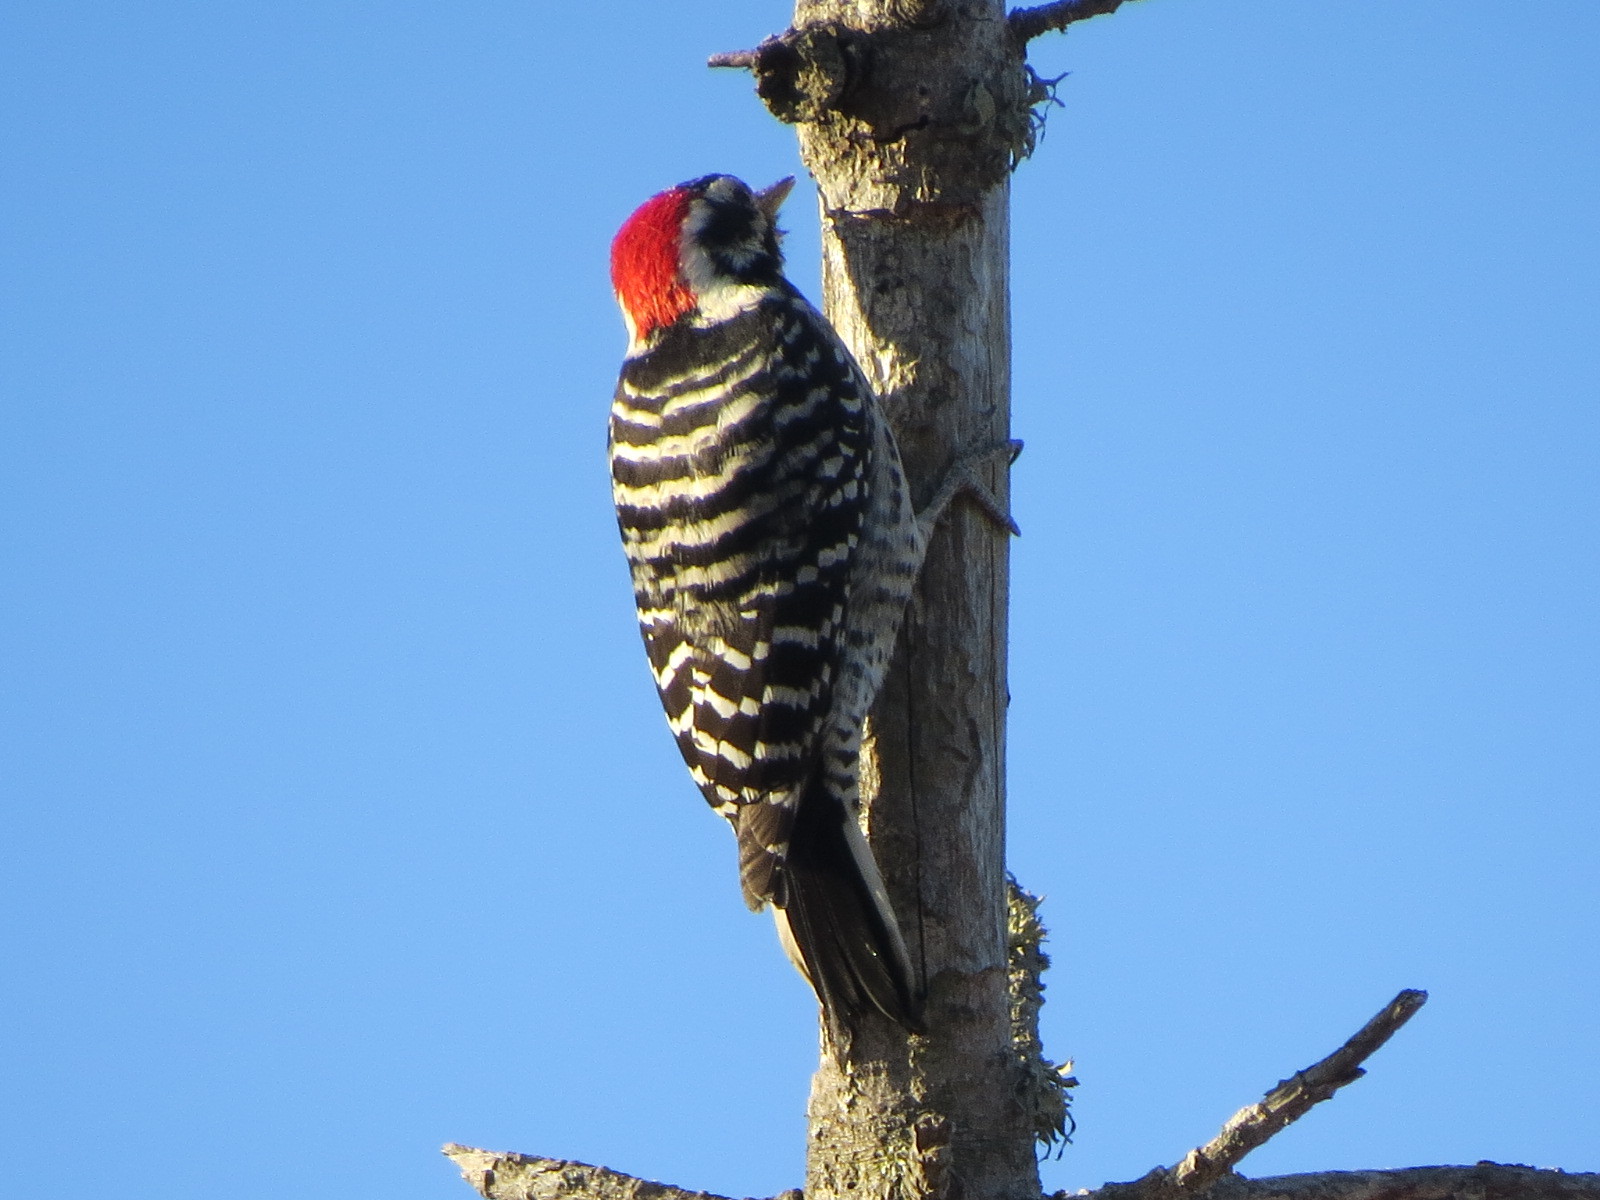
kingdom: Animalia
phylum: Chordata
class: Aves
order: Piciformes
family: Picidae
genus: Dryobates
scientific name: Dryobates nuttallii
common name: Nuttall's woodpecker
